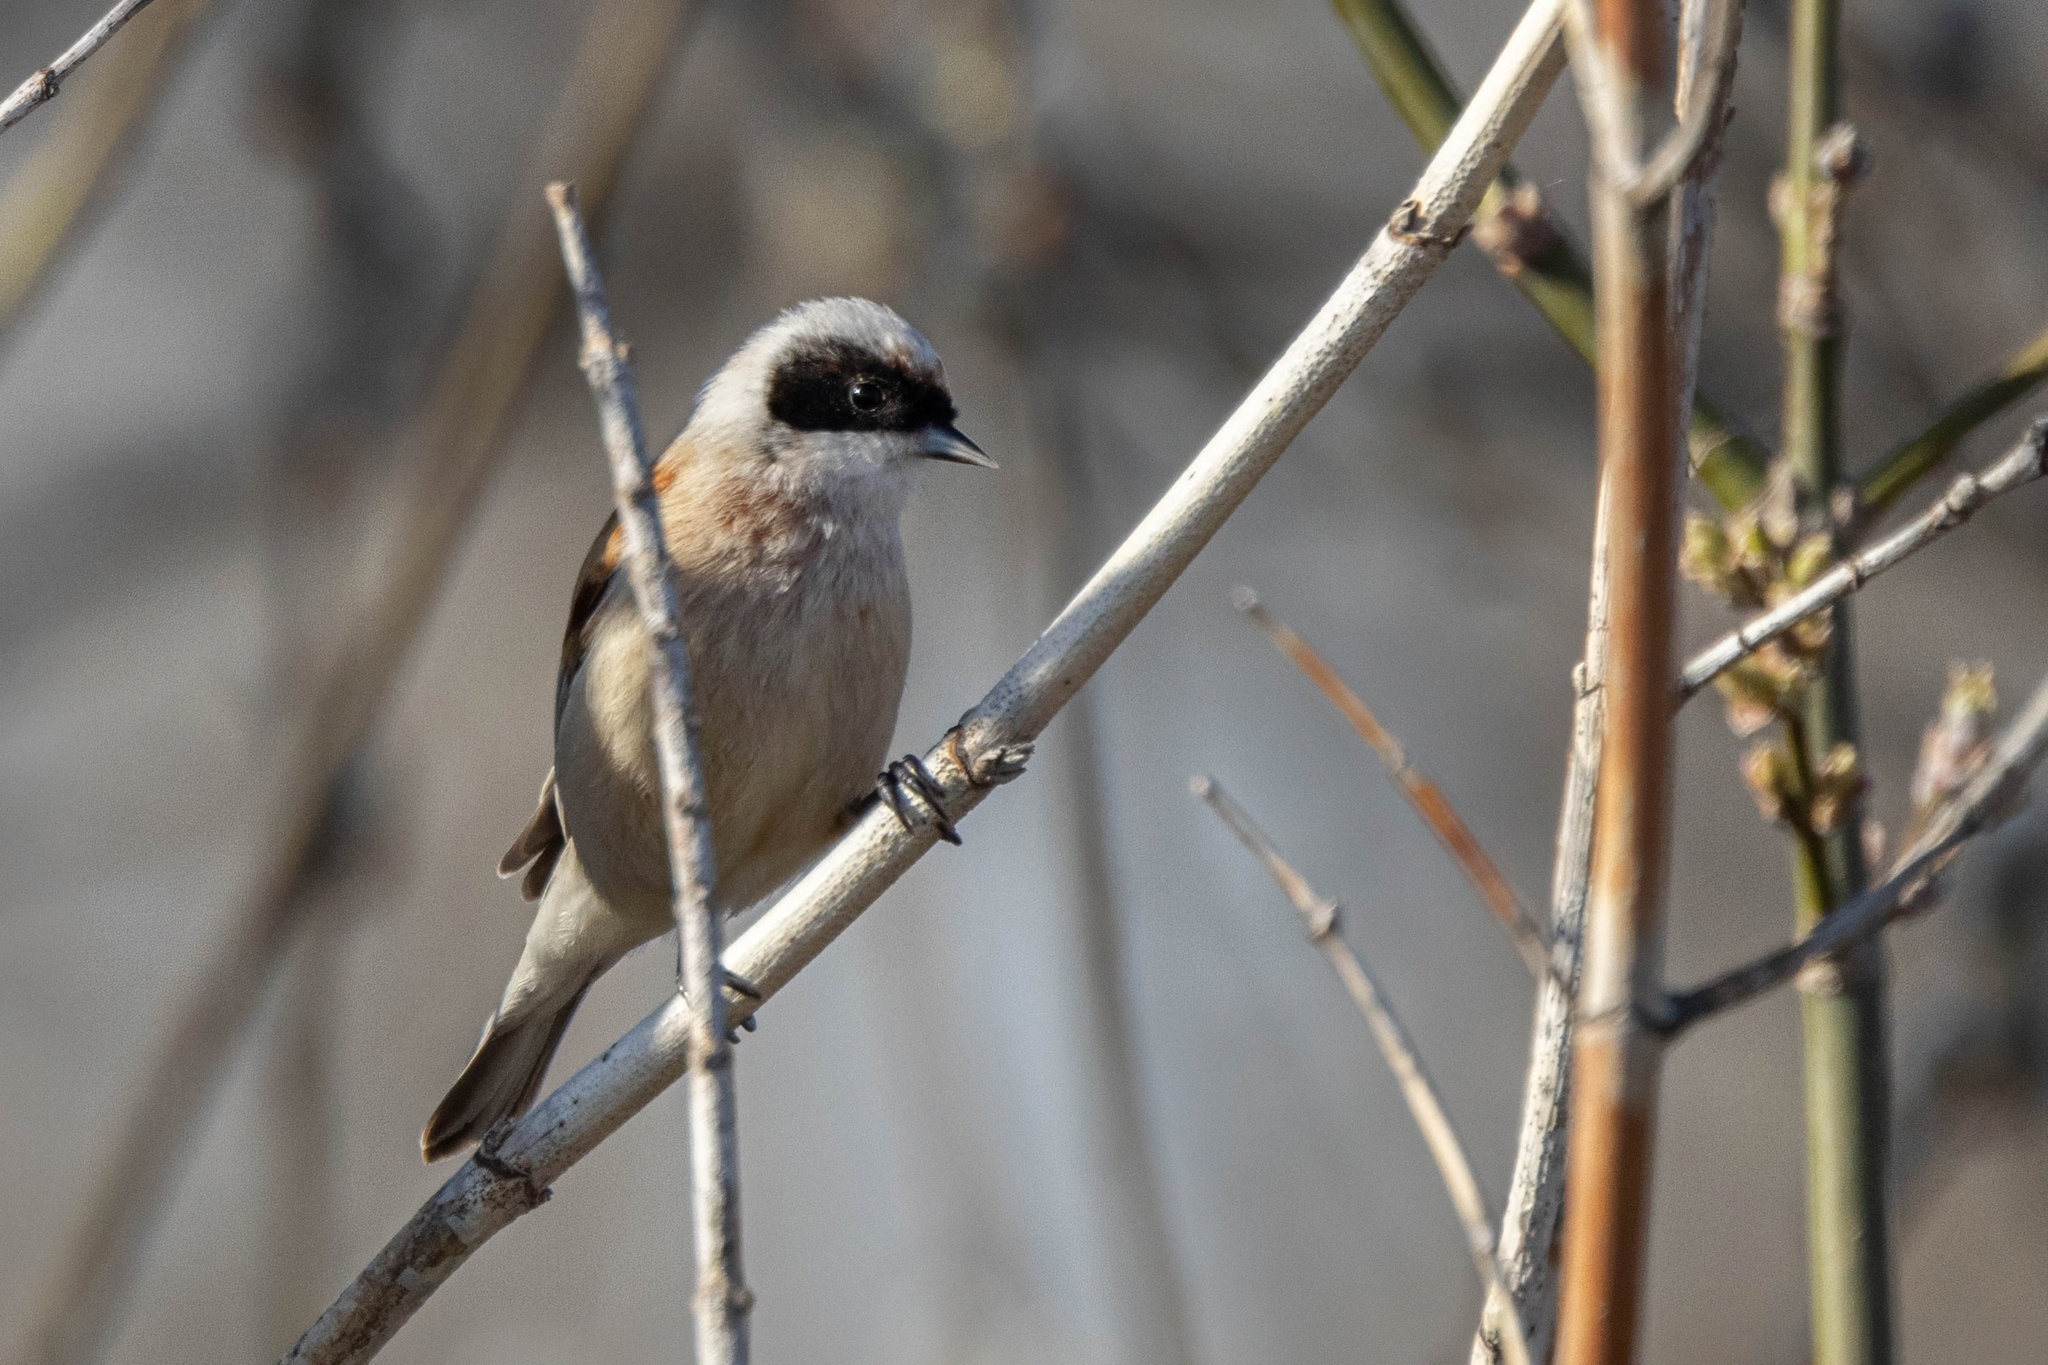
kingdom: Animalia
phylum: Chordata
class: Aves
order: Passeriformes
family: Remizidae
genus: Remiz
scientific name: Remiz pendulinus
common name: Eurasian penduline tit
